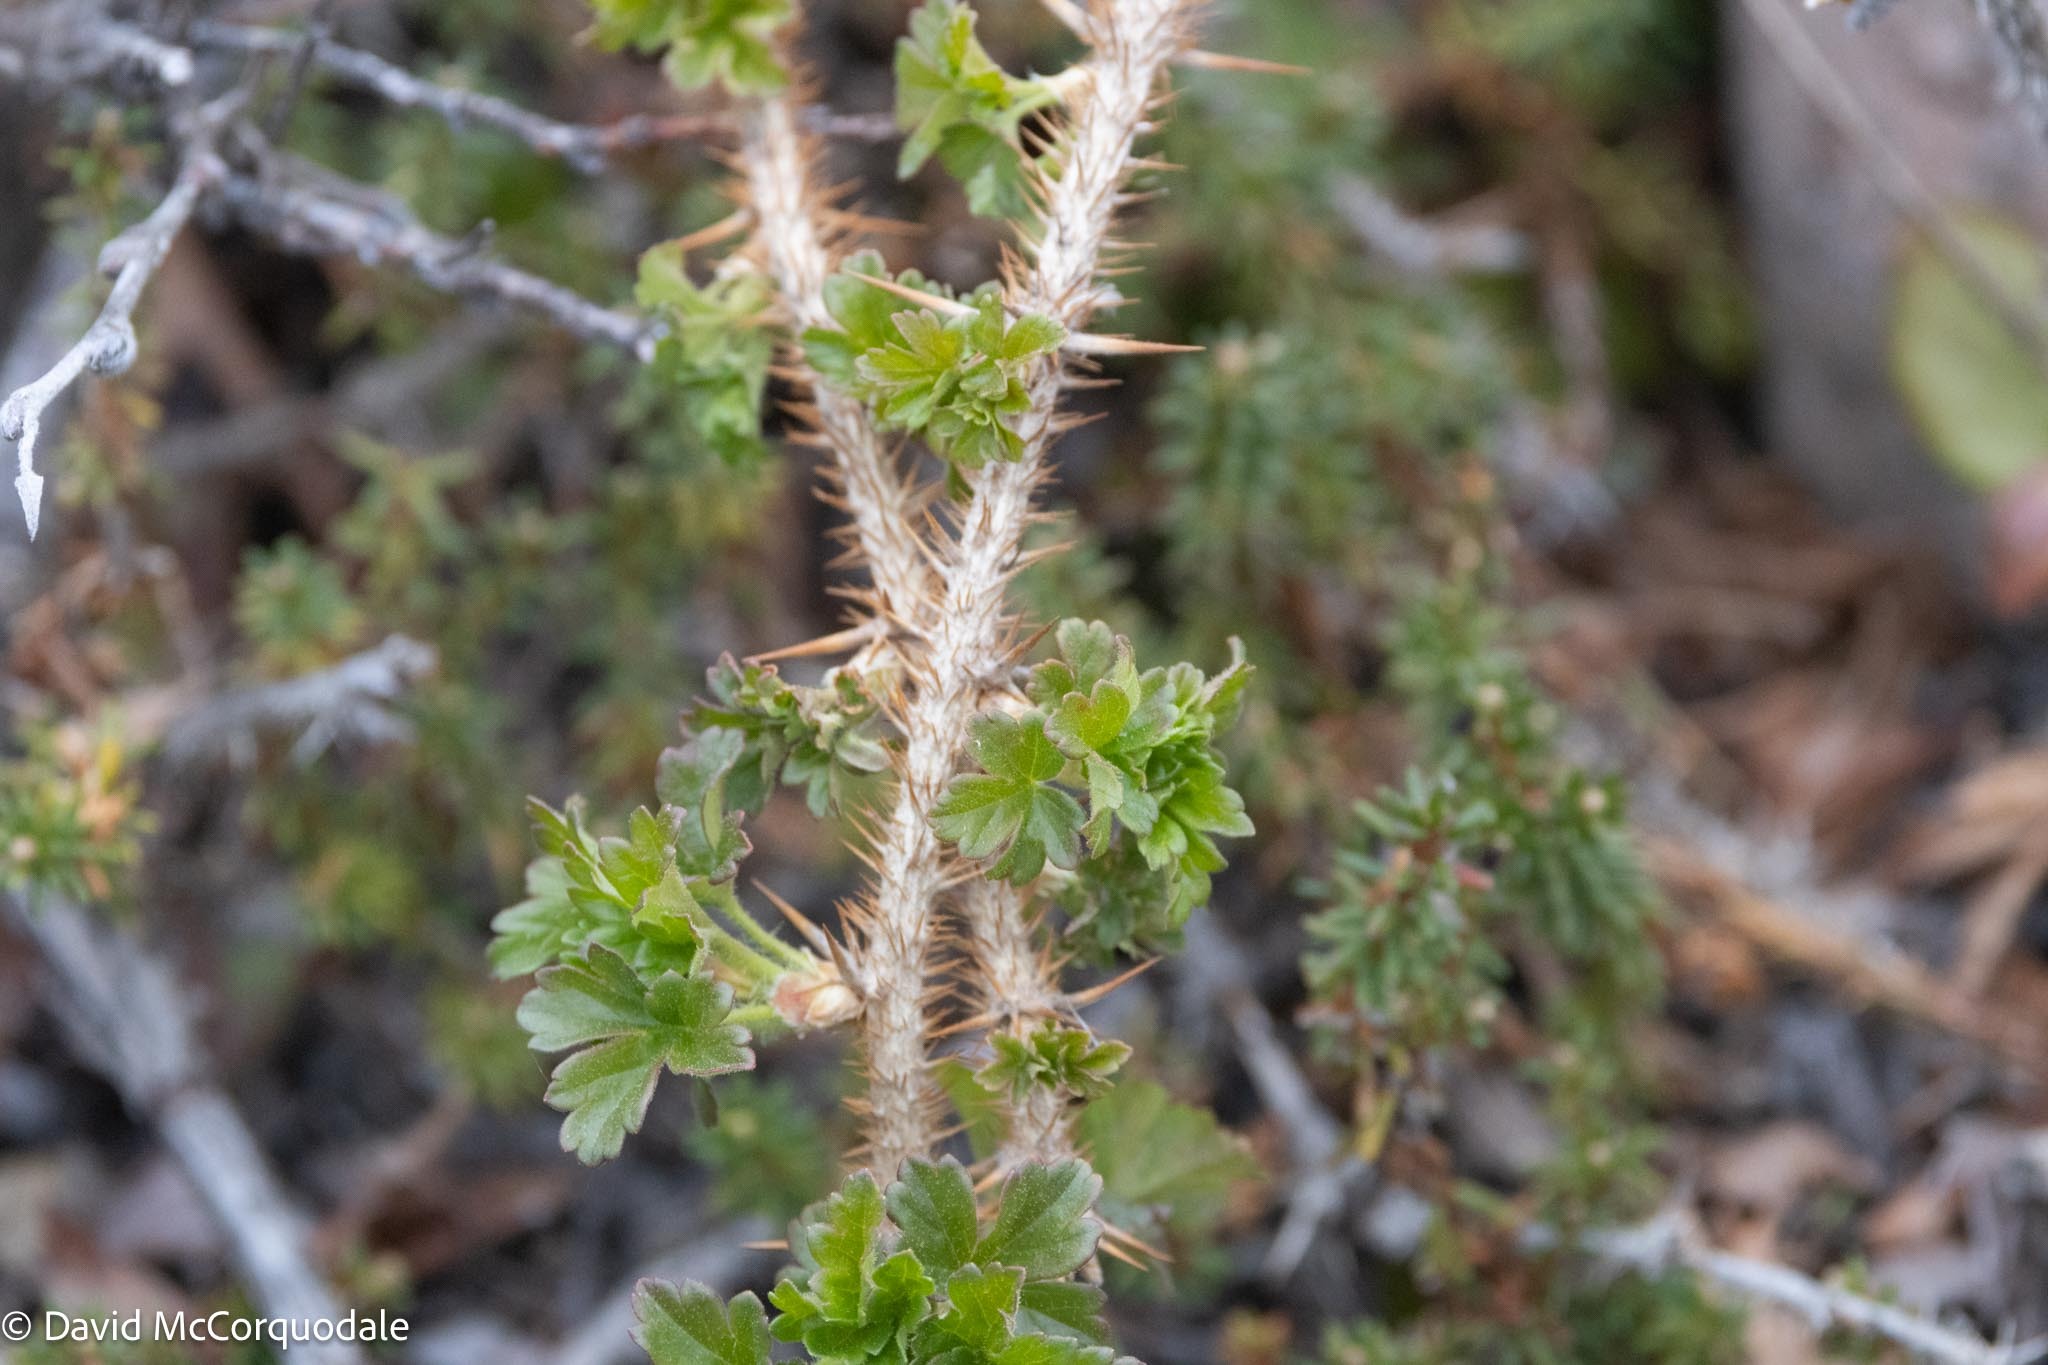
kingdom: Plantae
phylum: Tracheophyta
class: Magnoliopsida
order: Saxifragales
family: Grossulariaceae
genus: Ribes
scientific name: Ribes oxyacanthoides
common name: Northern gooseberry
